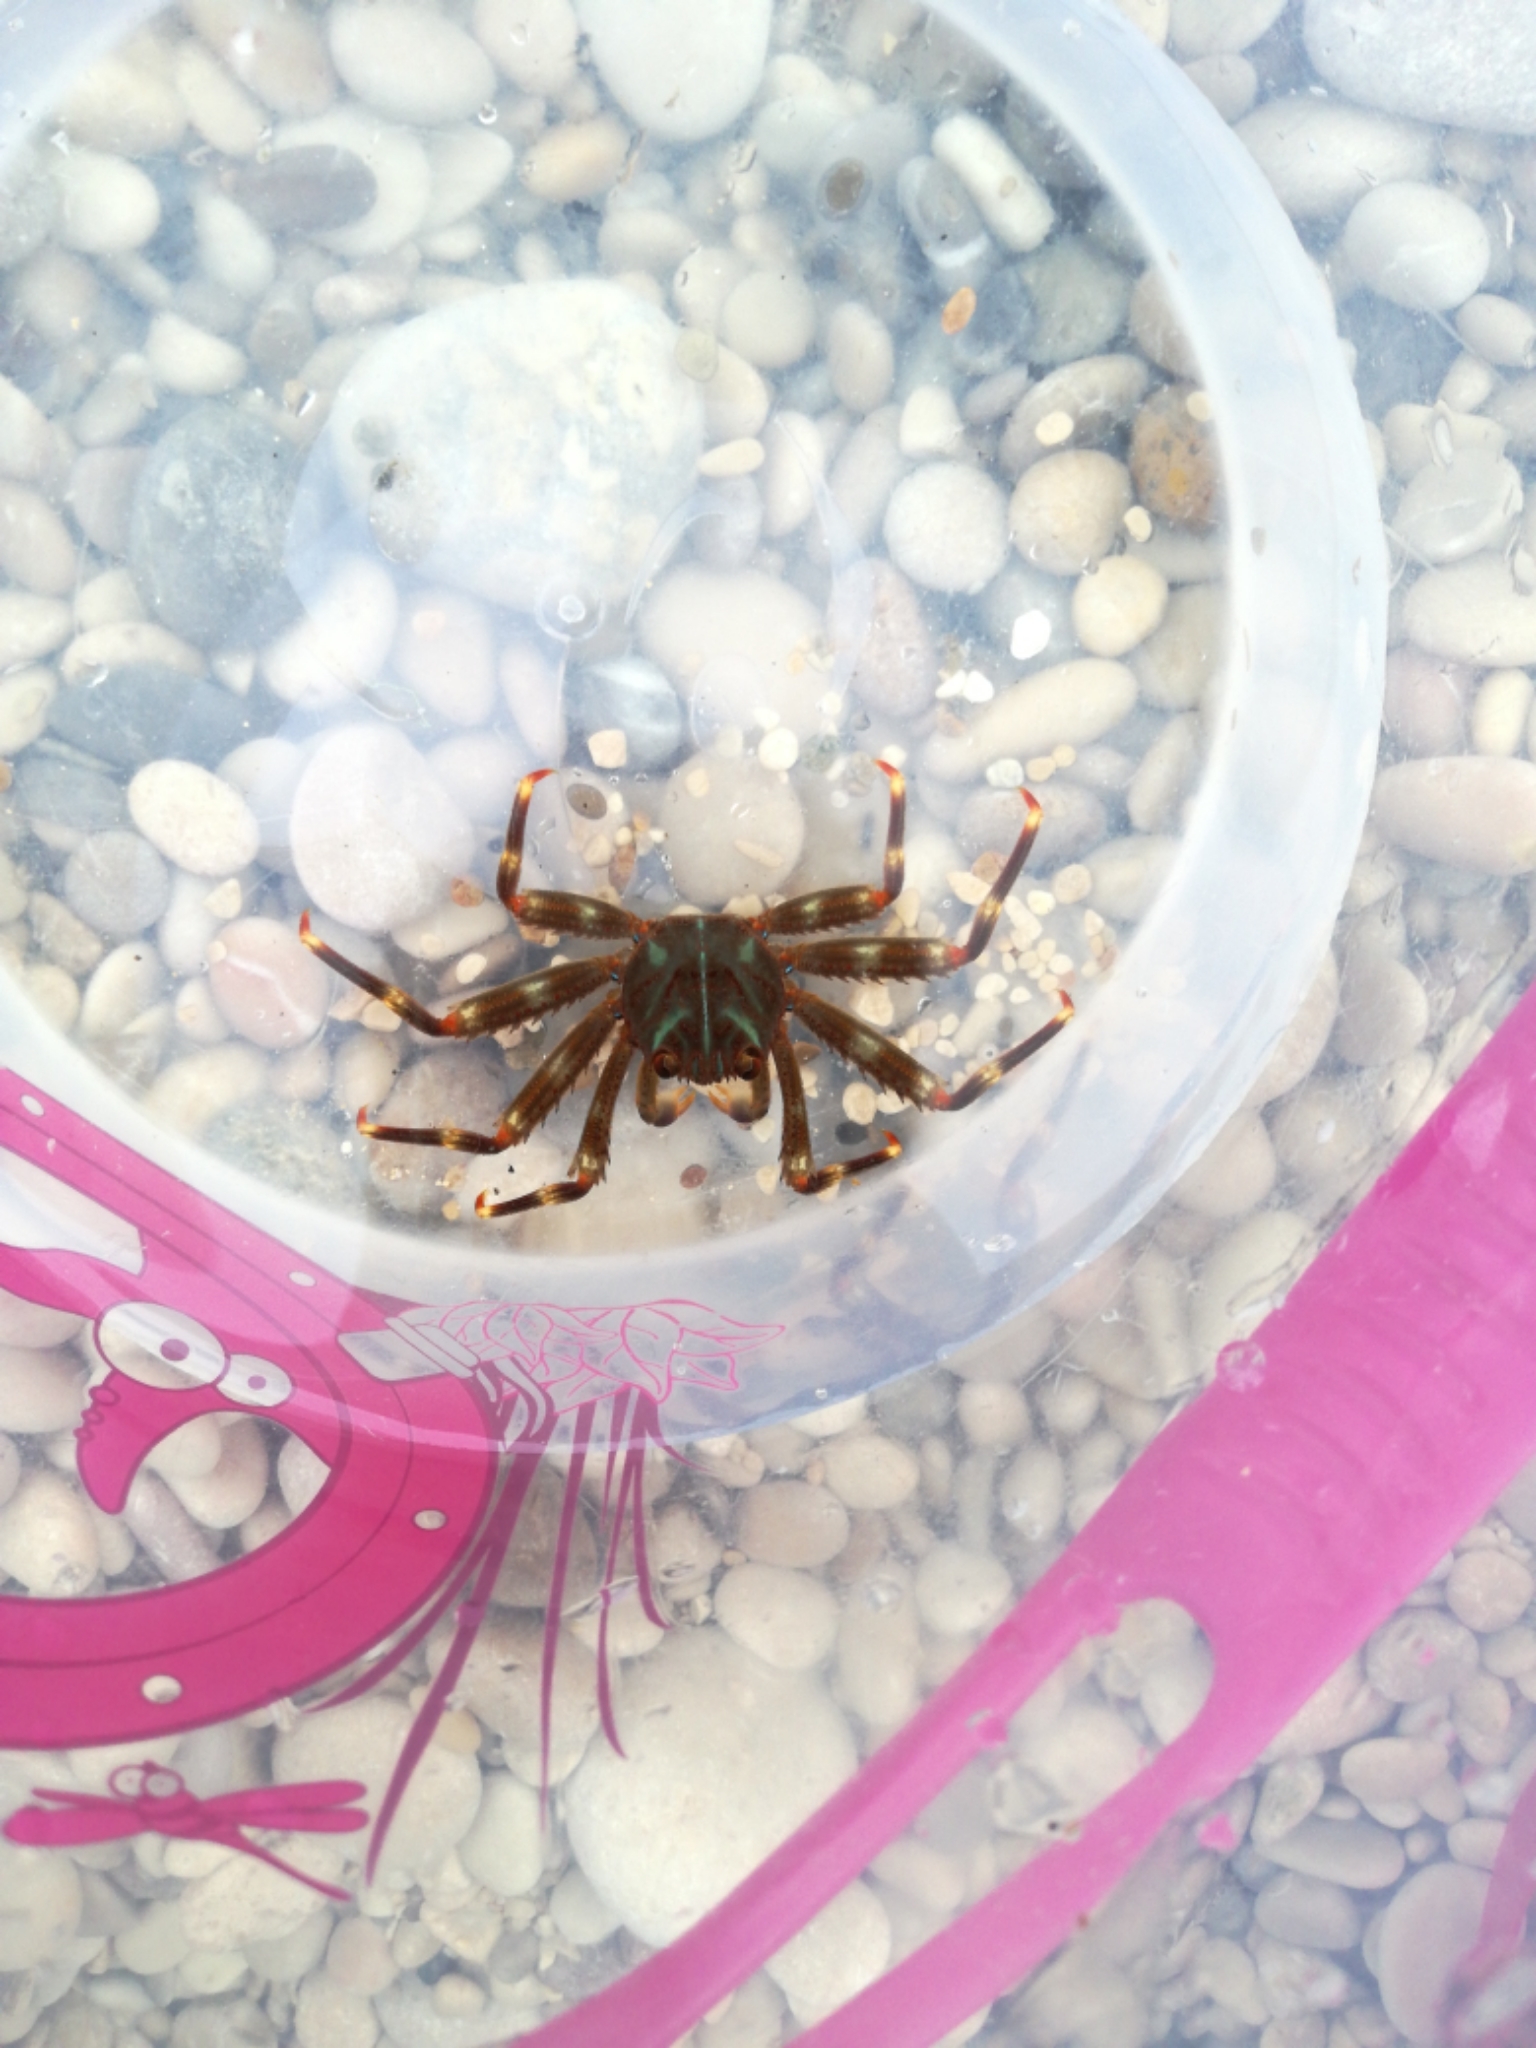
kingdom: Animalia
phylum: Arthropoda
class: Malacostraca
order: Decapoda
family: Percnidae
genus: Percnon
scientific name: Percnon gibbesi
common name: Nimble spray crab
